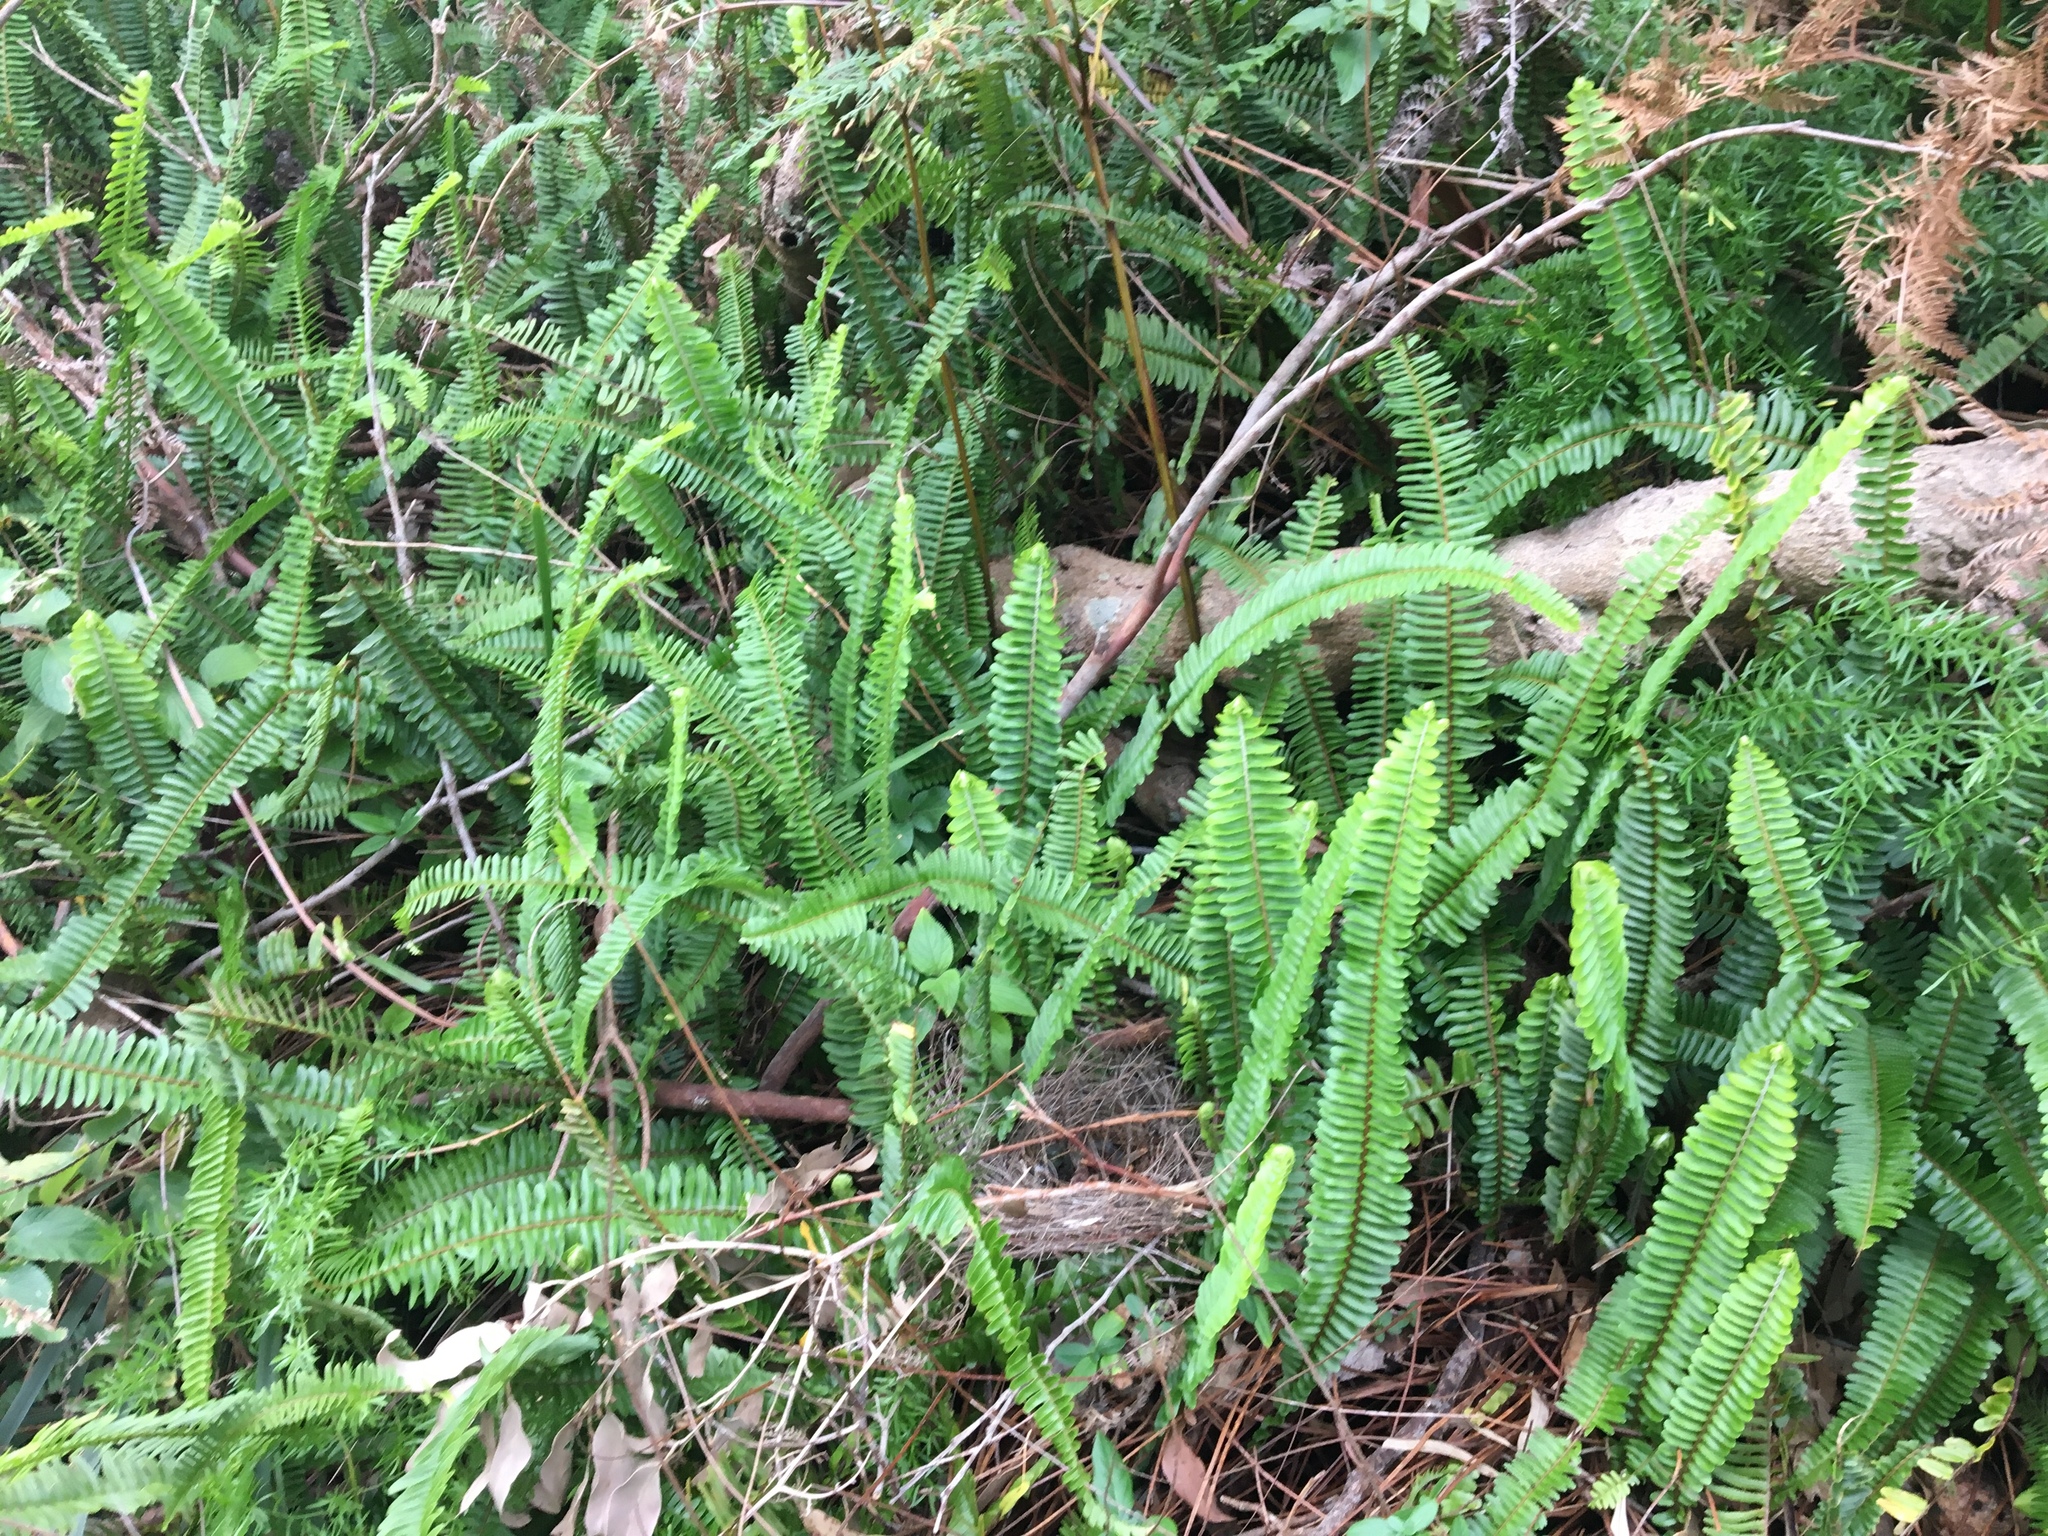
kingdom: Plantae
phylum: Tracheophyta
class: Polypodiopsida
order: Polypodiales
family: Nephrolepidaceae
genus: Nephrolepis
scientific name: Nephrolepis cordifolia
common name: Narrow swordfern
